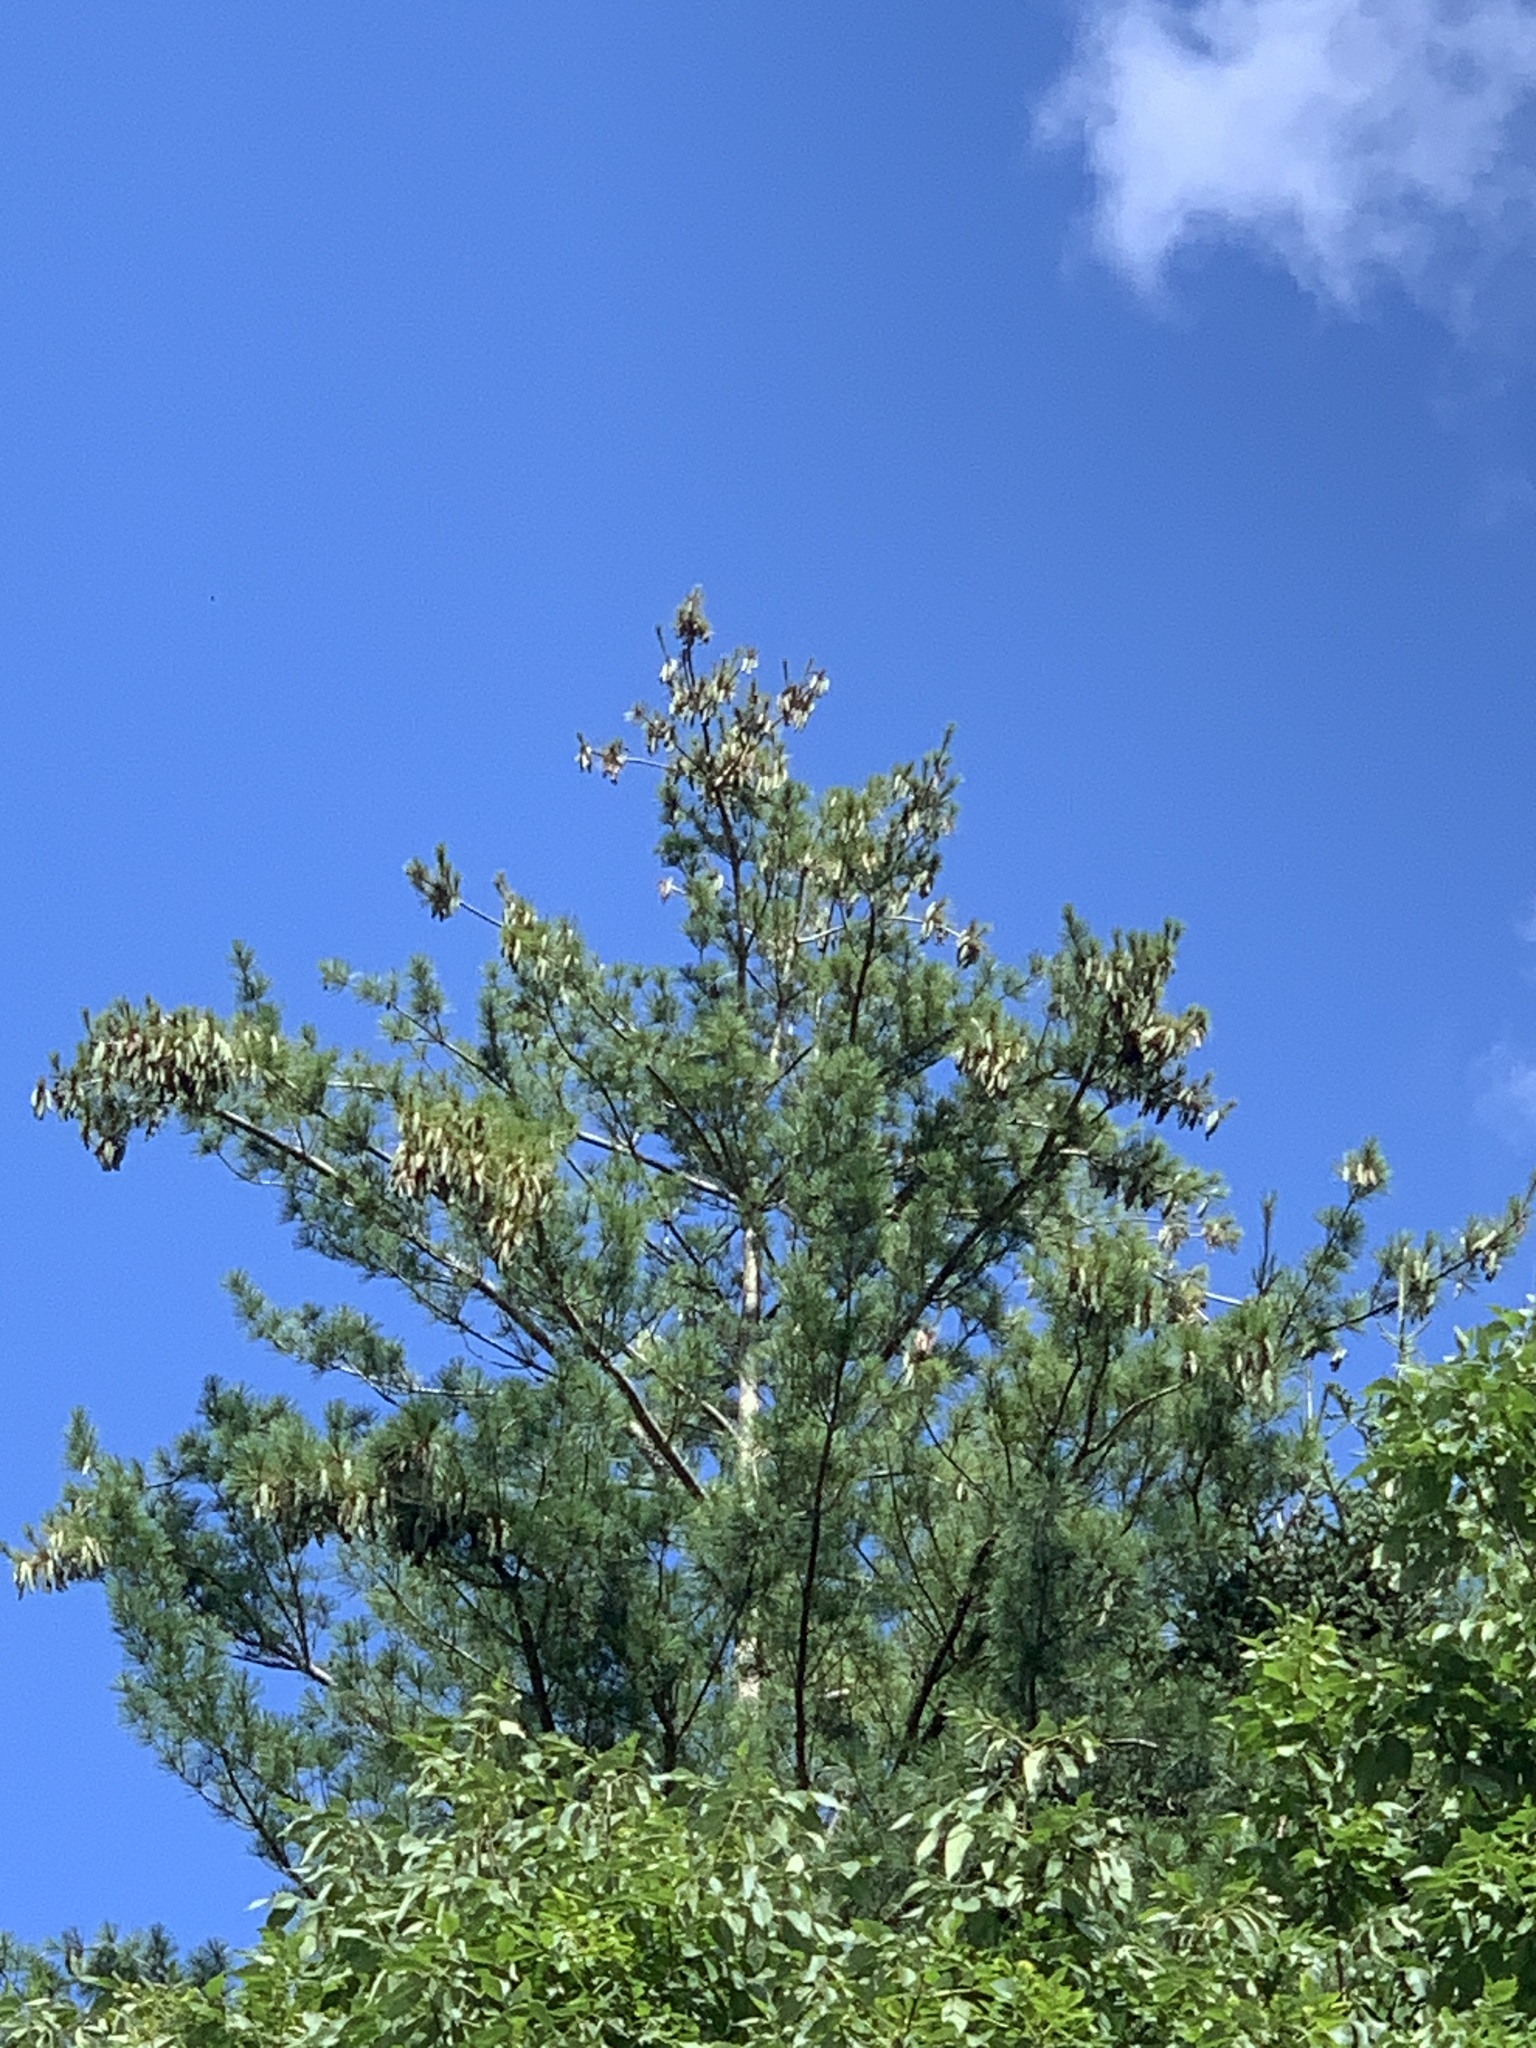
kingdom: Plantae
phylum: Tracheophyta
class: Pinopsida
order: Pinales
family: Pinaceae
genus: Pinus
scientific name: Pinus strobus
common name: Weymouth pine
